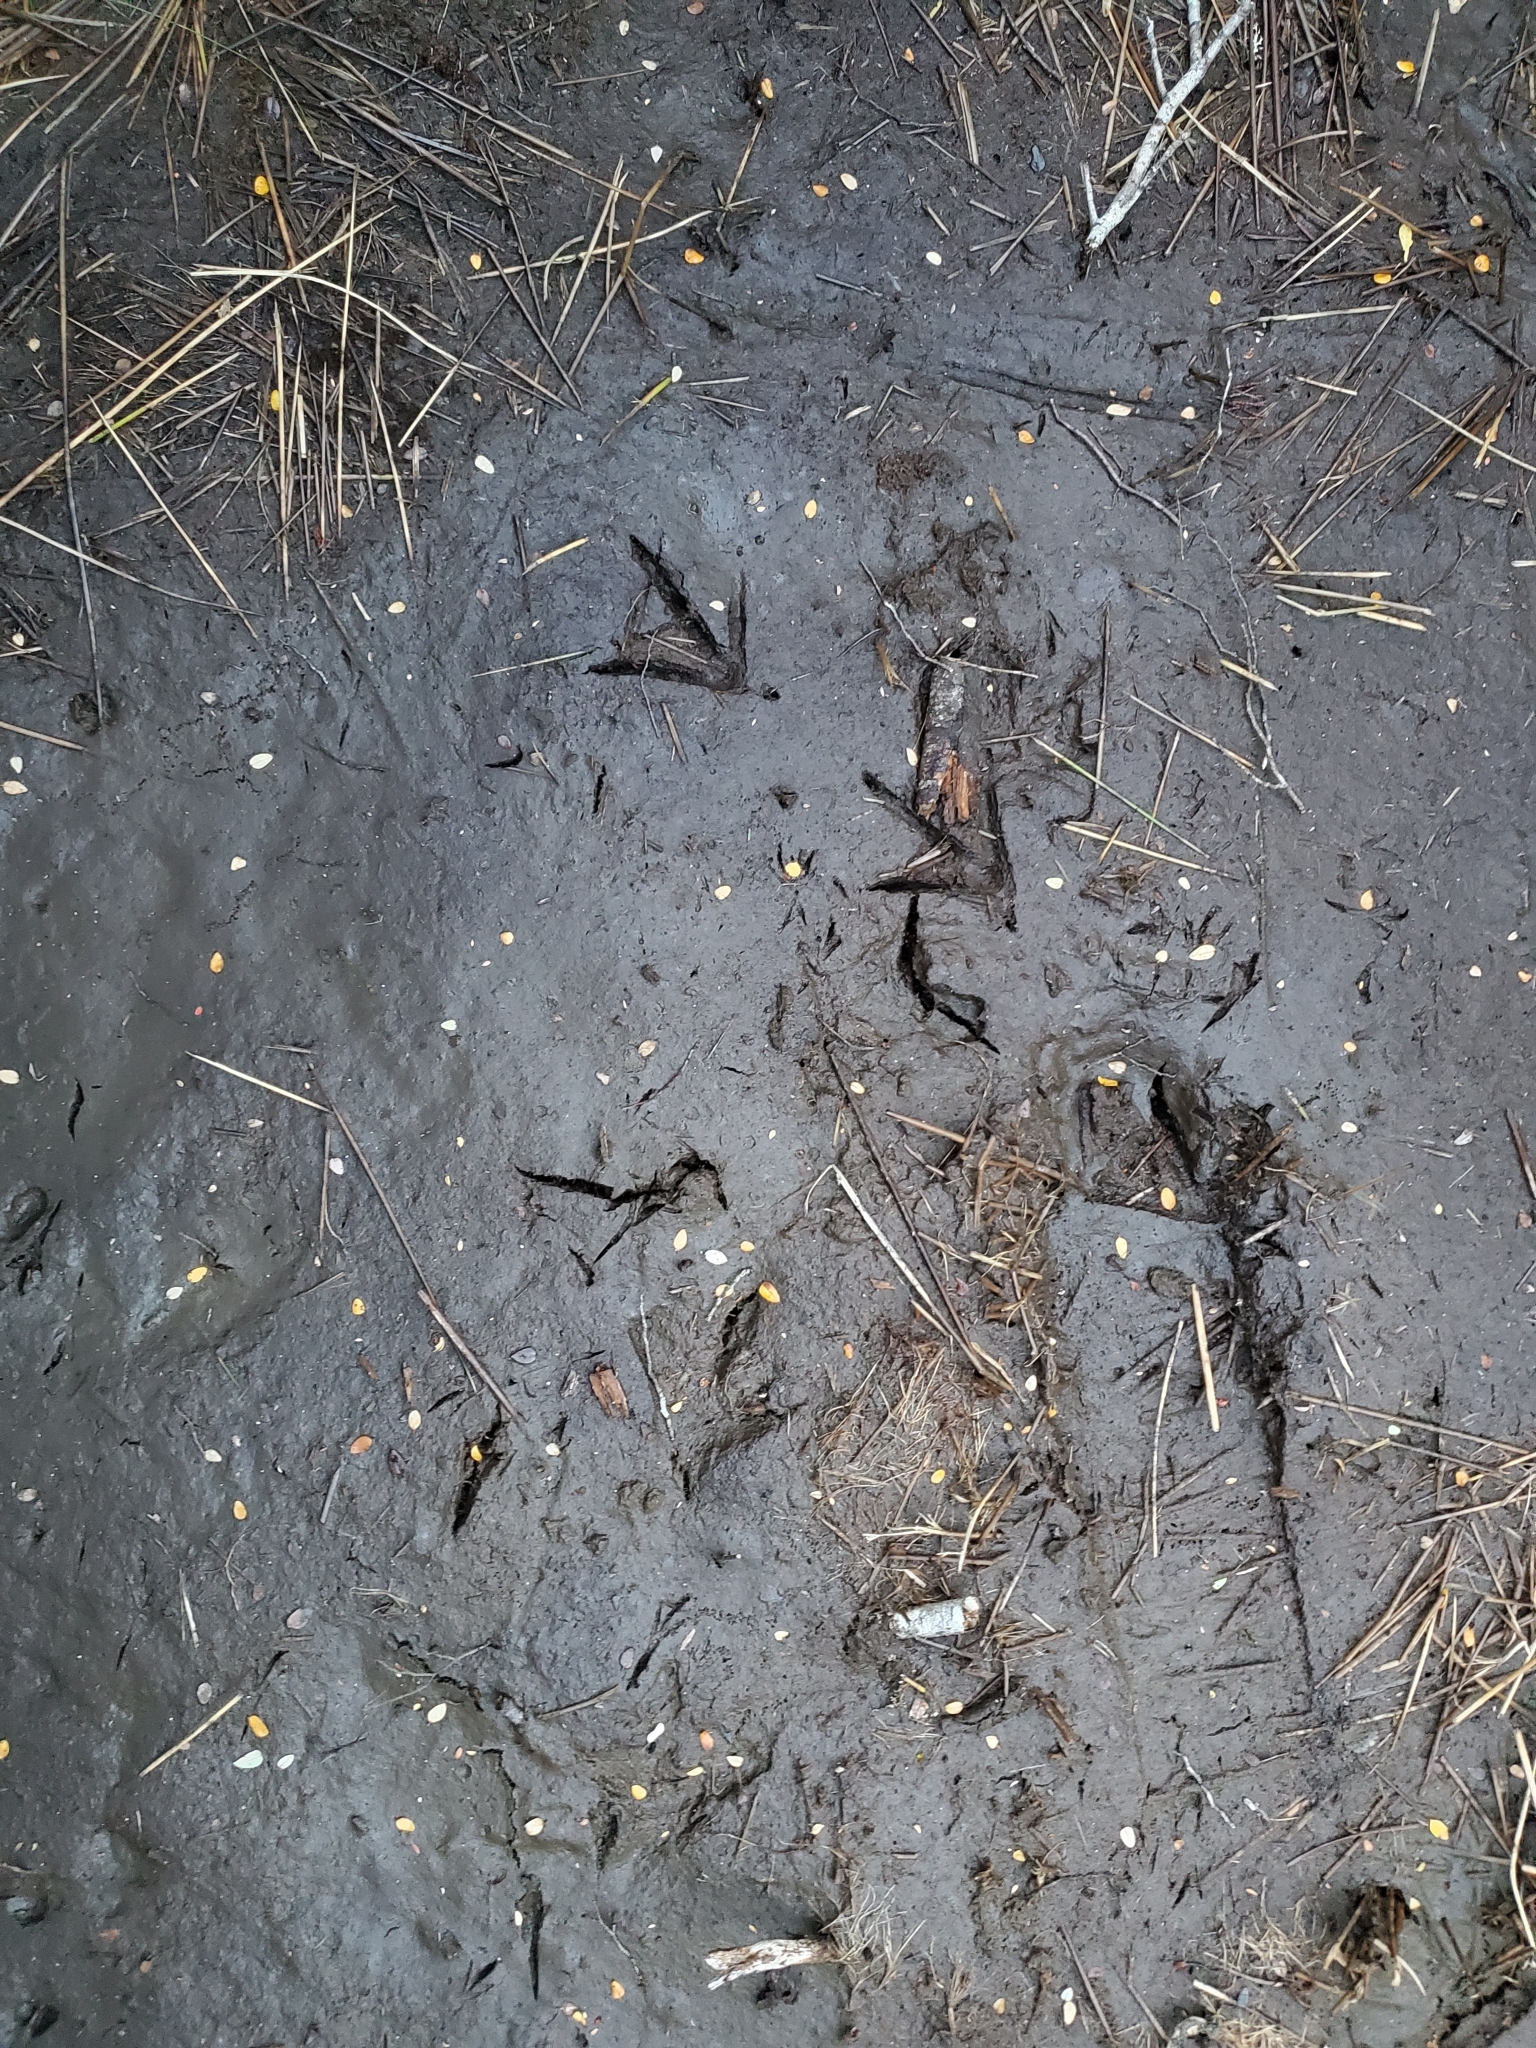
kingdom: Animalia
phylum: Chordata
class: Aves
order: Gruiformes
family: Rallidae
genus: Gallirallus
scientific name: Gallirallus australis
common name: Weka
